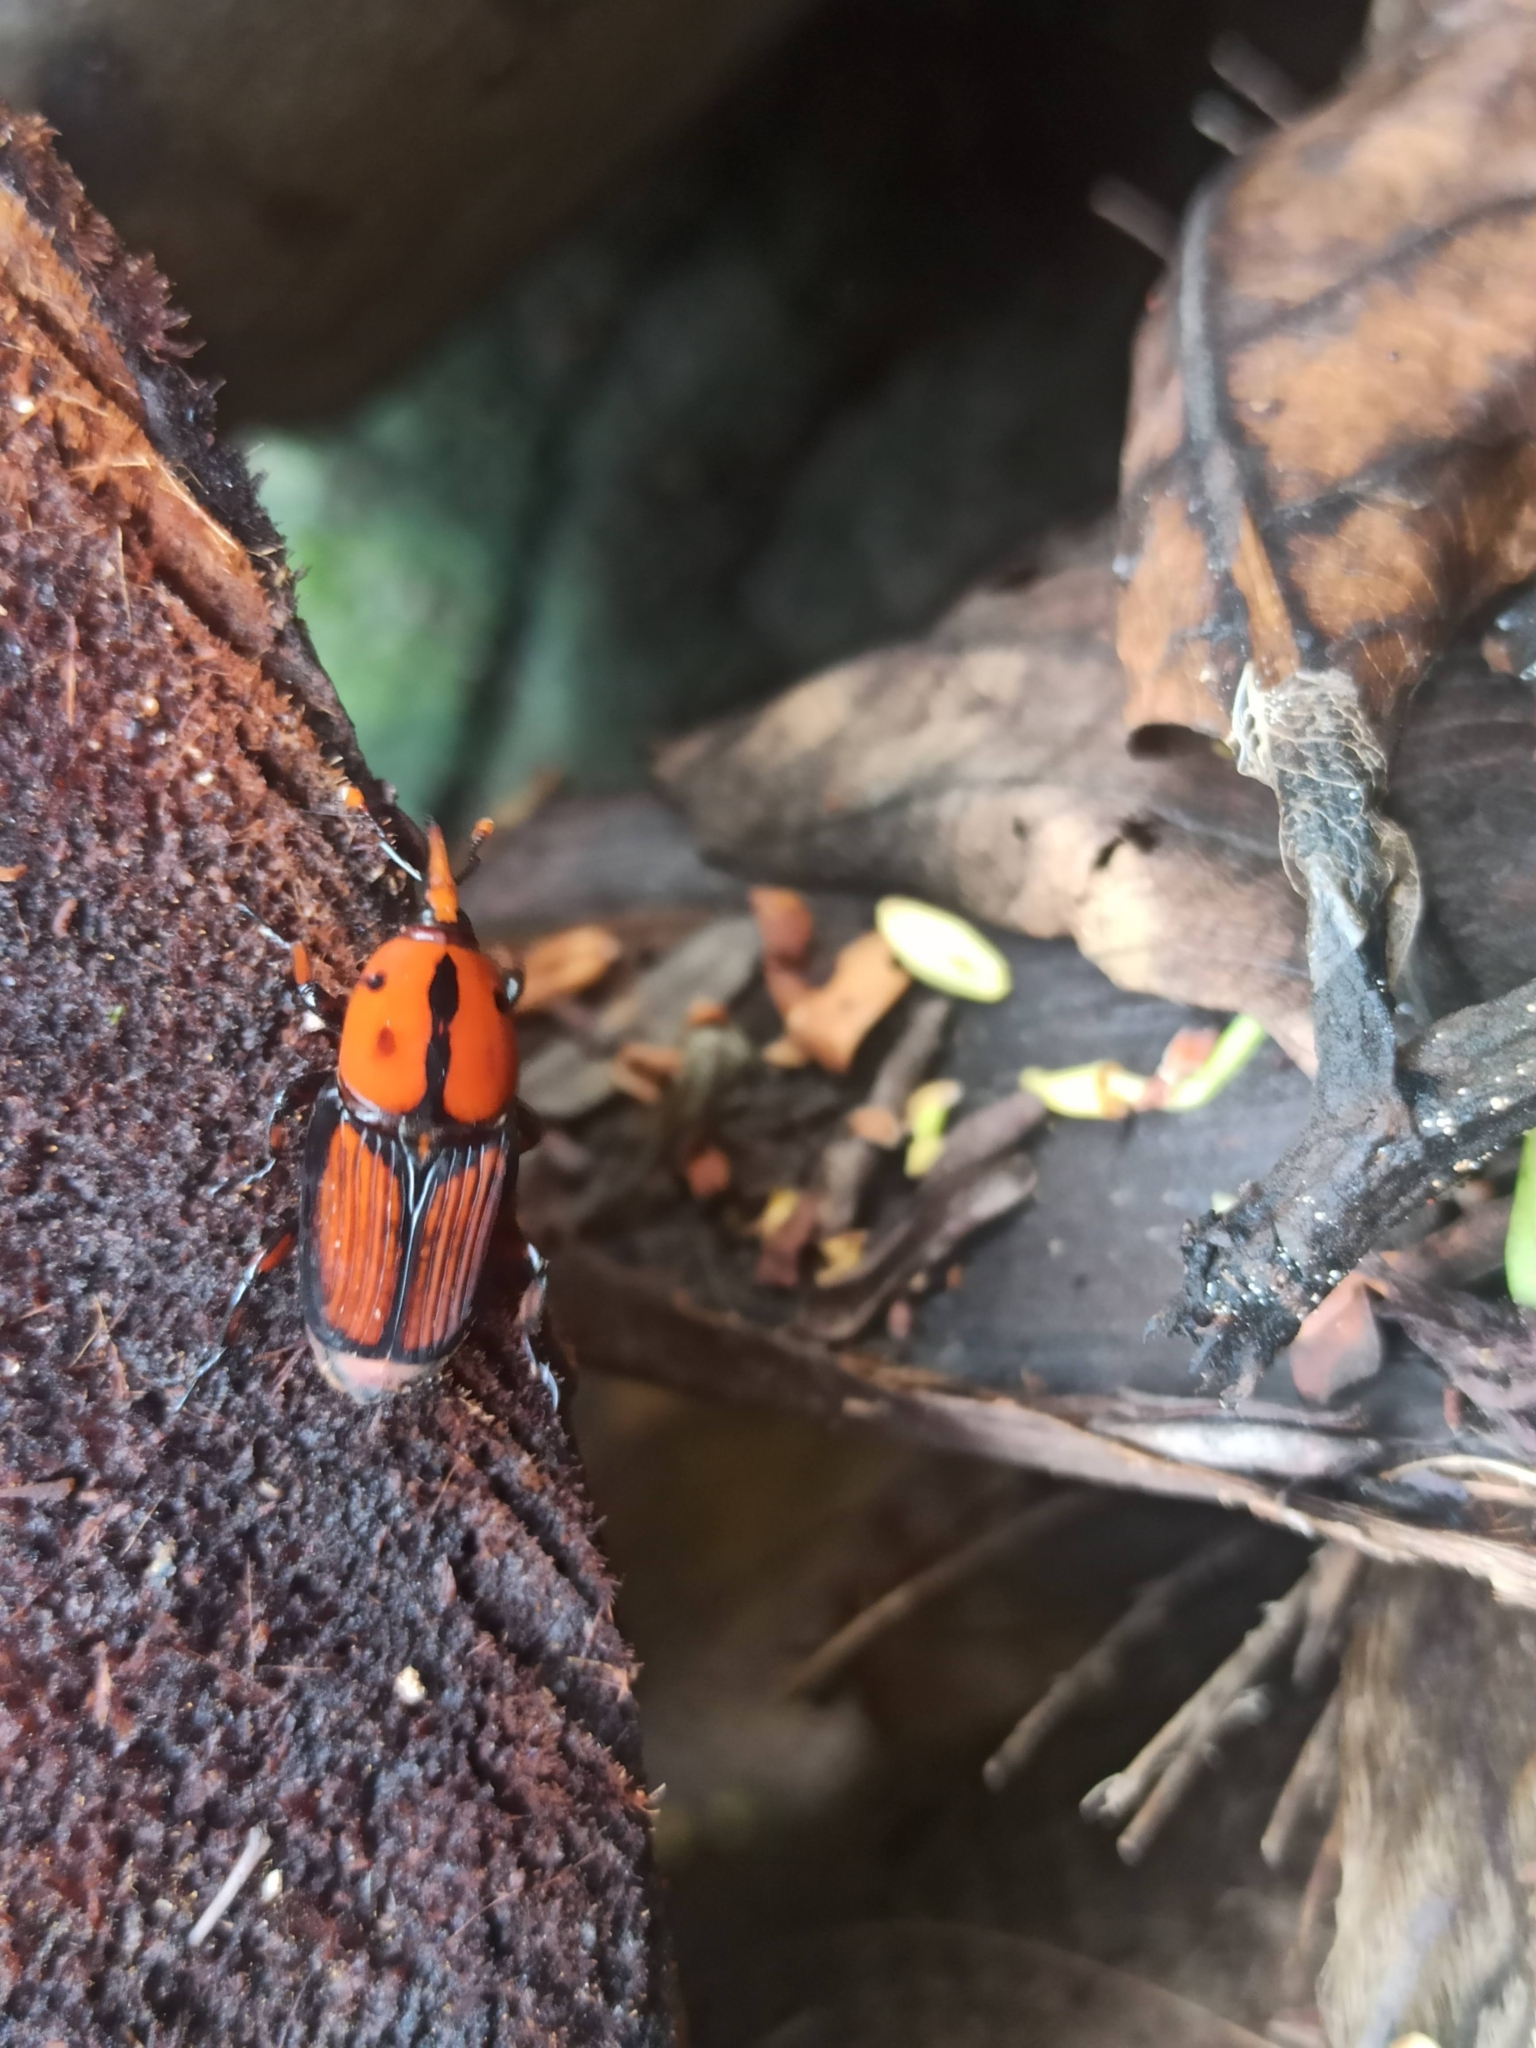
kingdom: Animalia
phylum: Arthropoda
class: Insecta
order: Coleoptera
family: Dryophthoridae
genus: Rhynchophorus
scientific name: Rhynchophorus ferrugineus
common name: Red palm weevil
